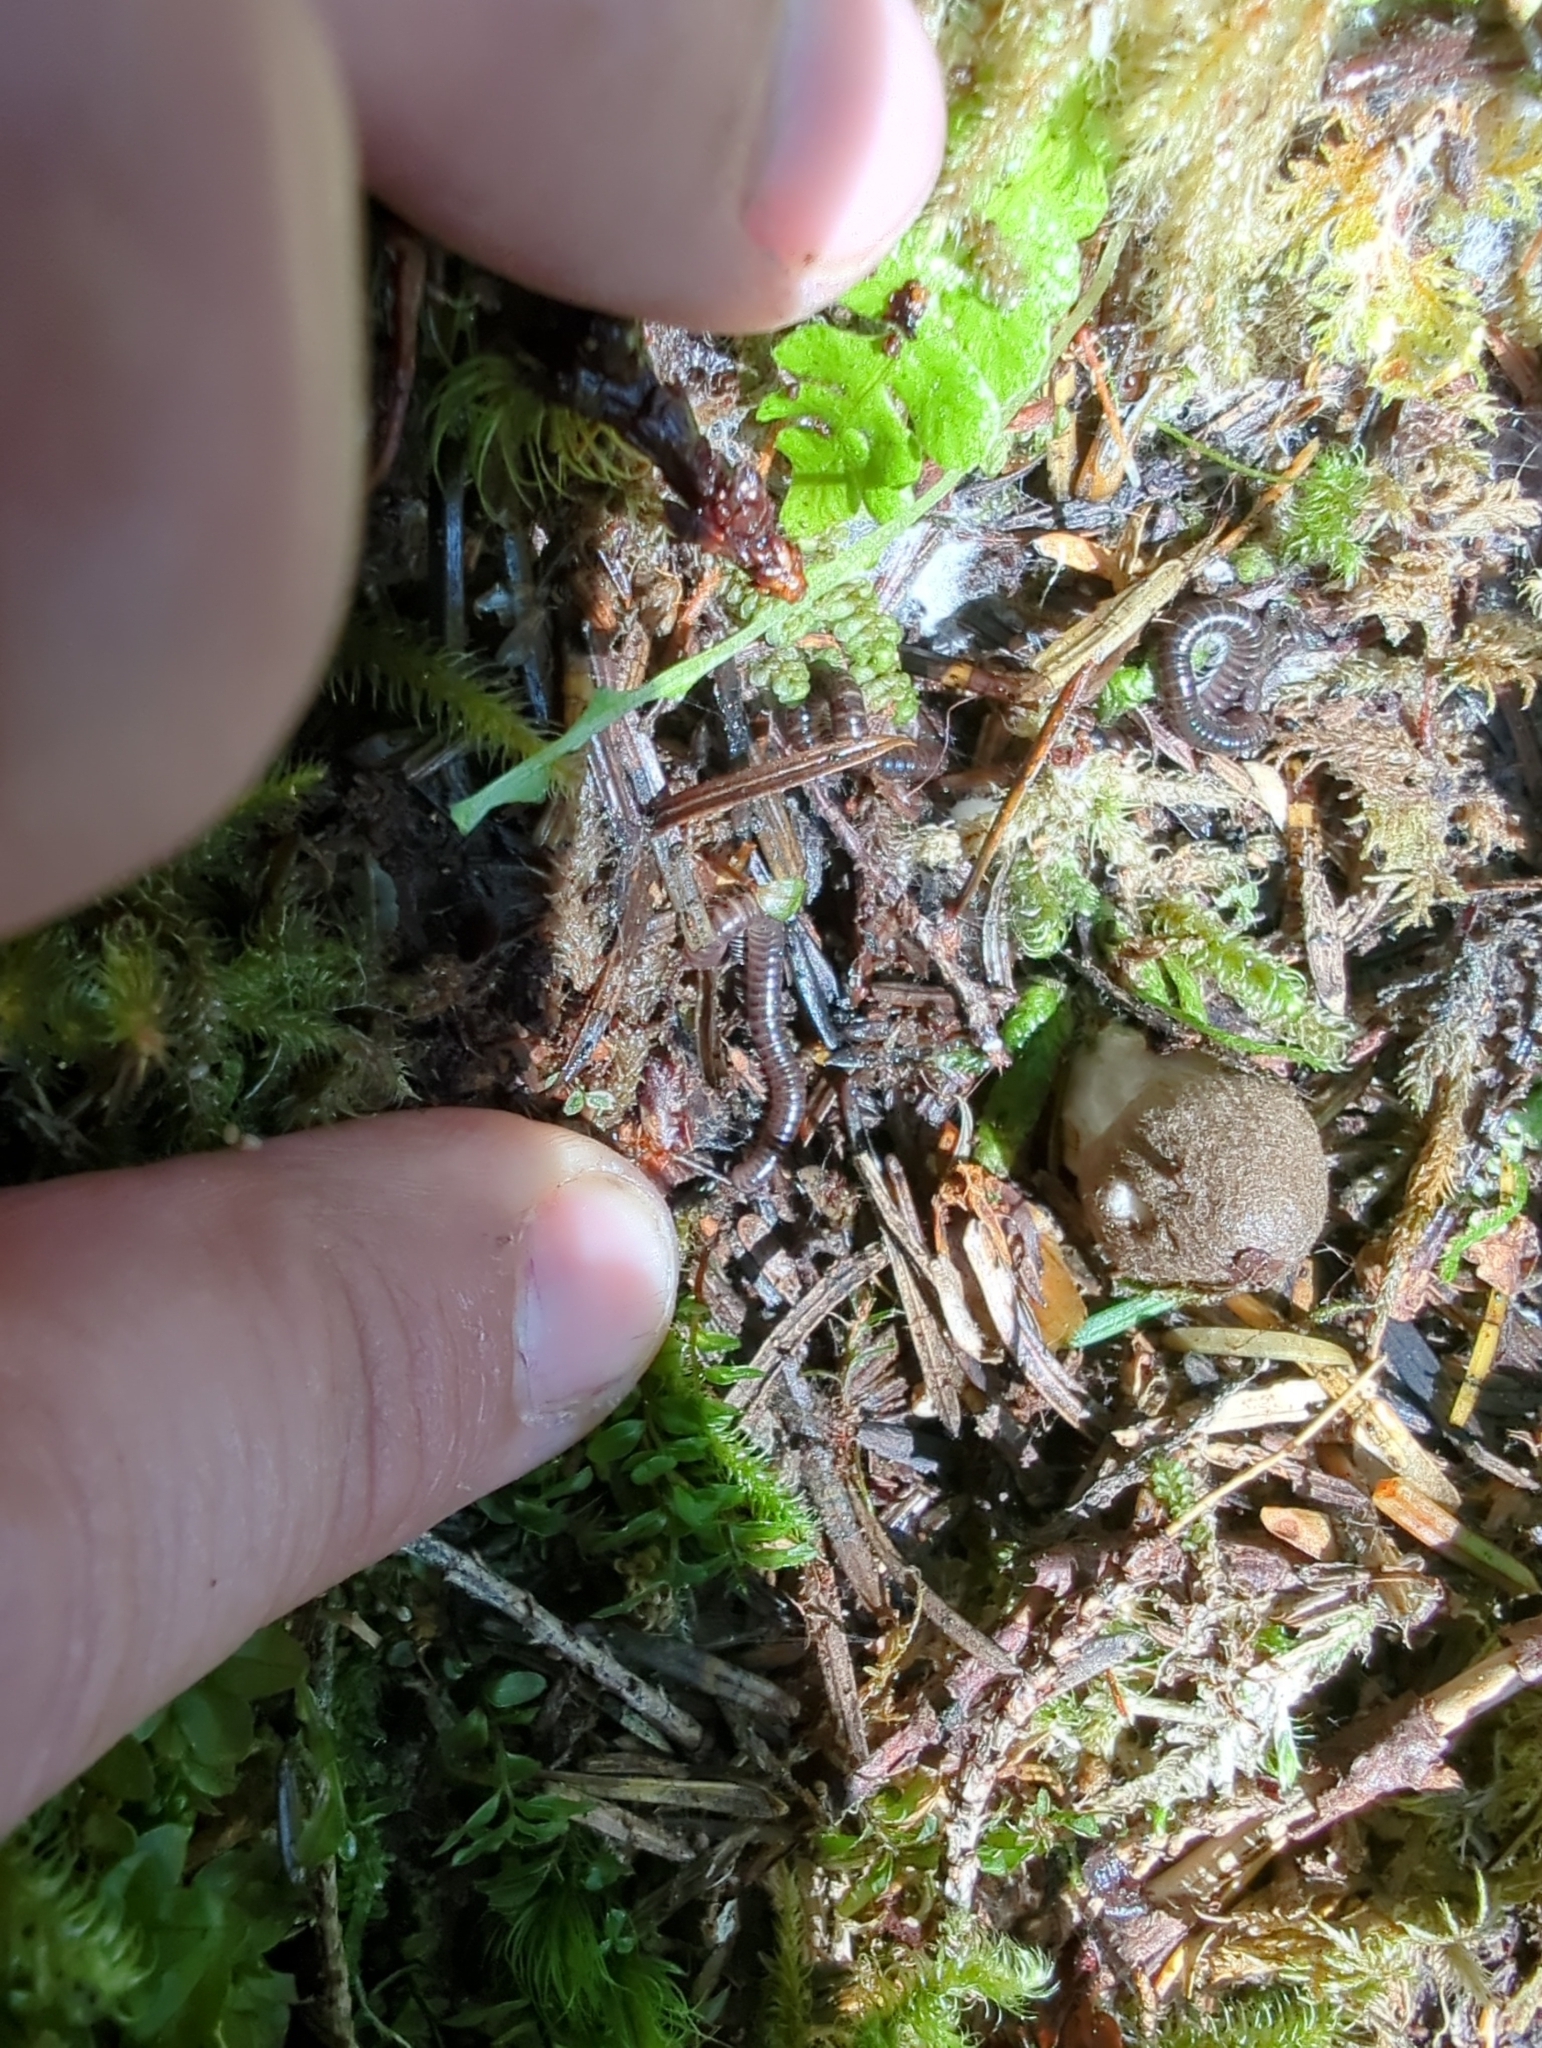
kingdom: Animalia
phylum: Arthropoda
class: Diplopoda
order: Julida
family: Parajulidae
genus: Litiulus
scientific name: Litiulus alaskanus
